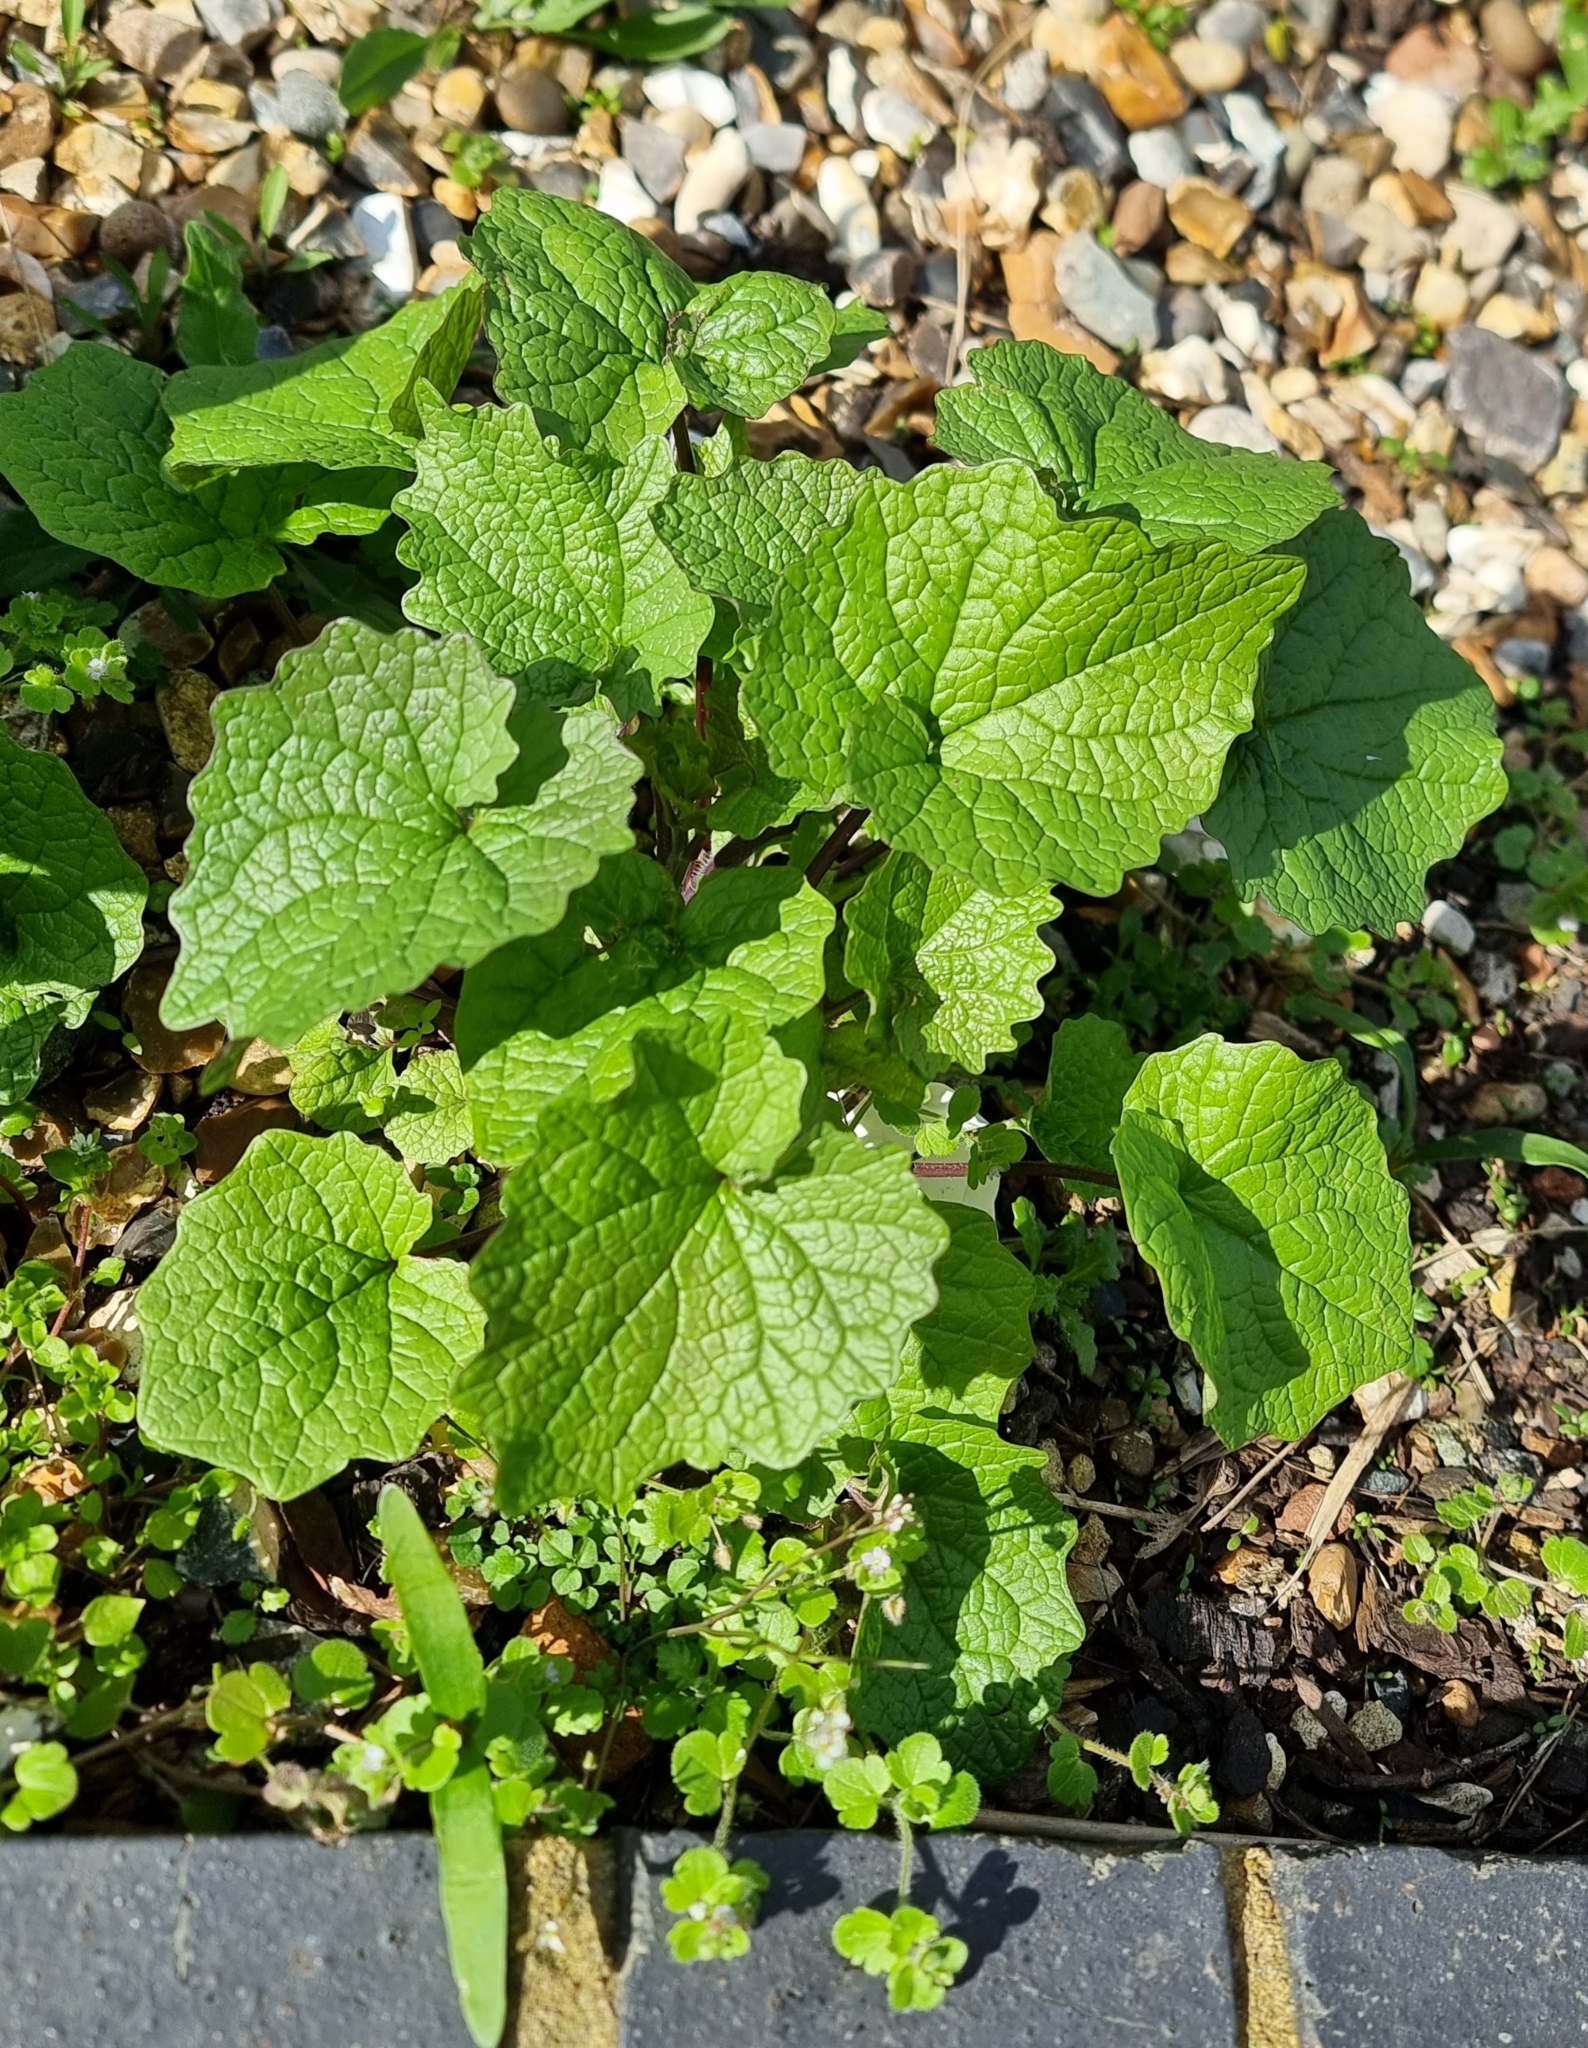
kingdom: Plantae
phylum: Tracheophyta
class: Magnoliopsida
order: Brassicales
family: Brassicaceae
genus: Alliaria
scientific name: Alliaria petiolata
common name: Garlic mustard
